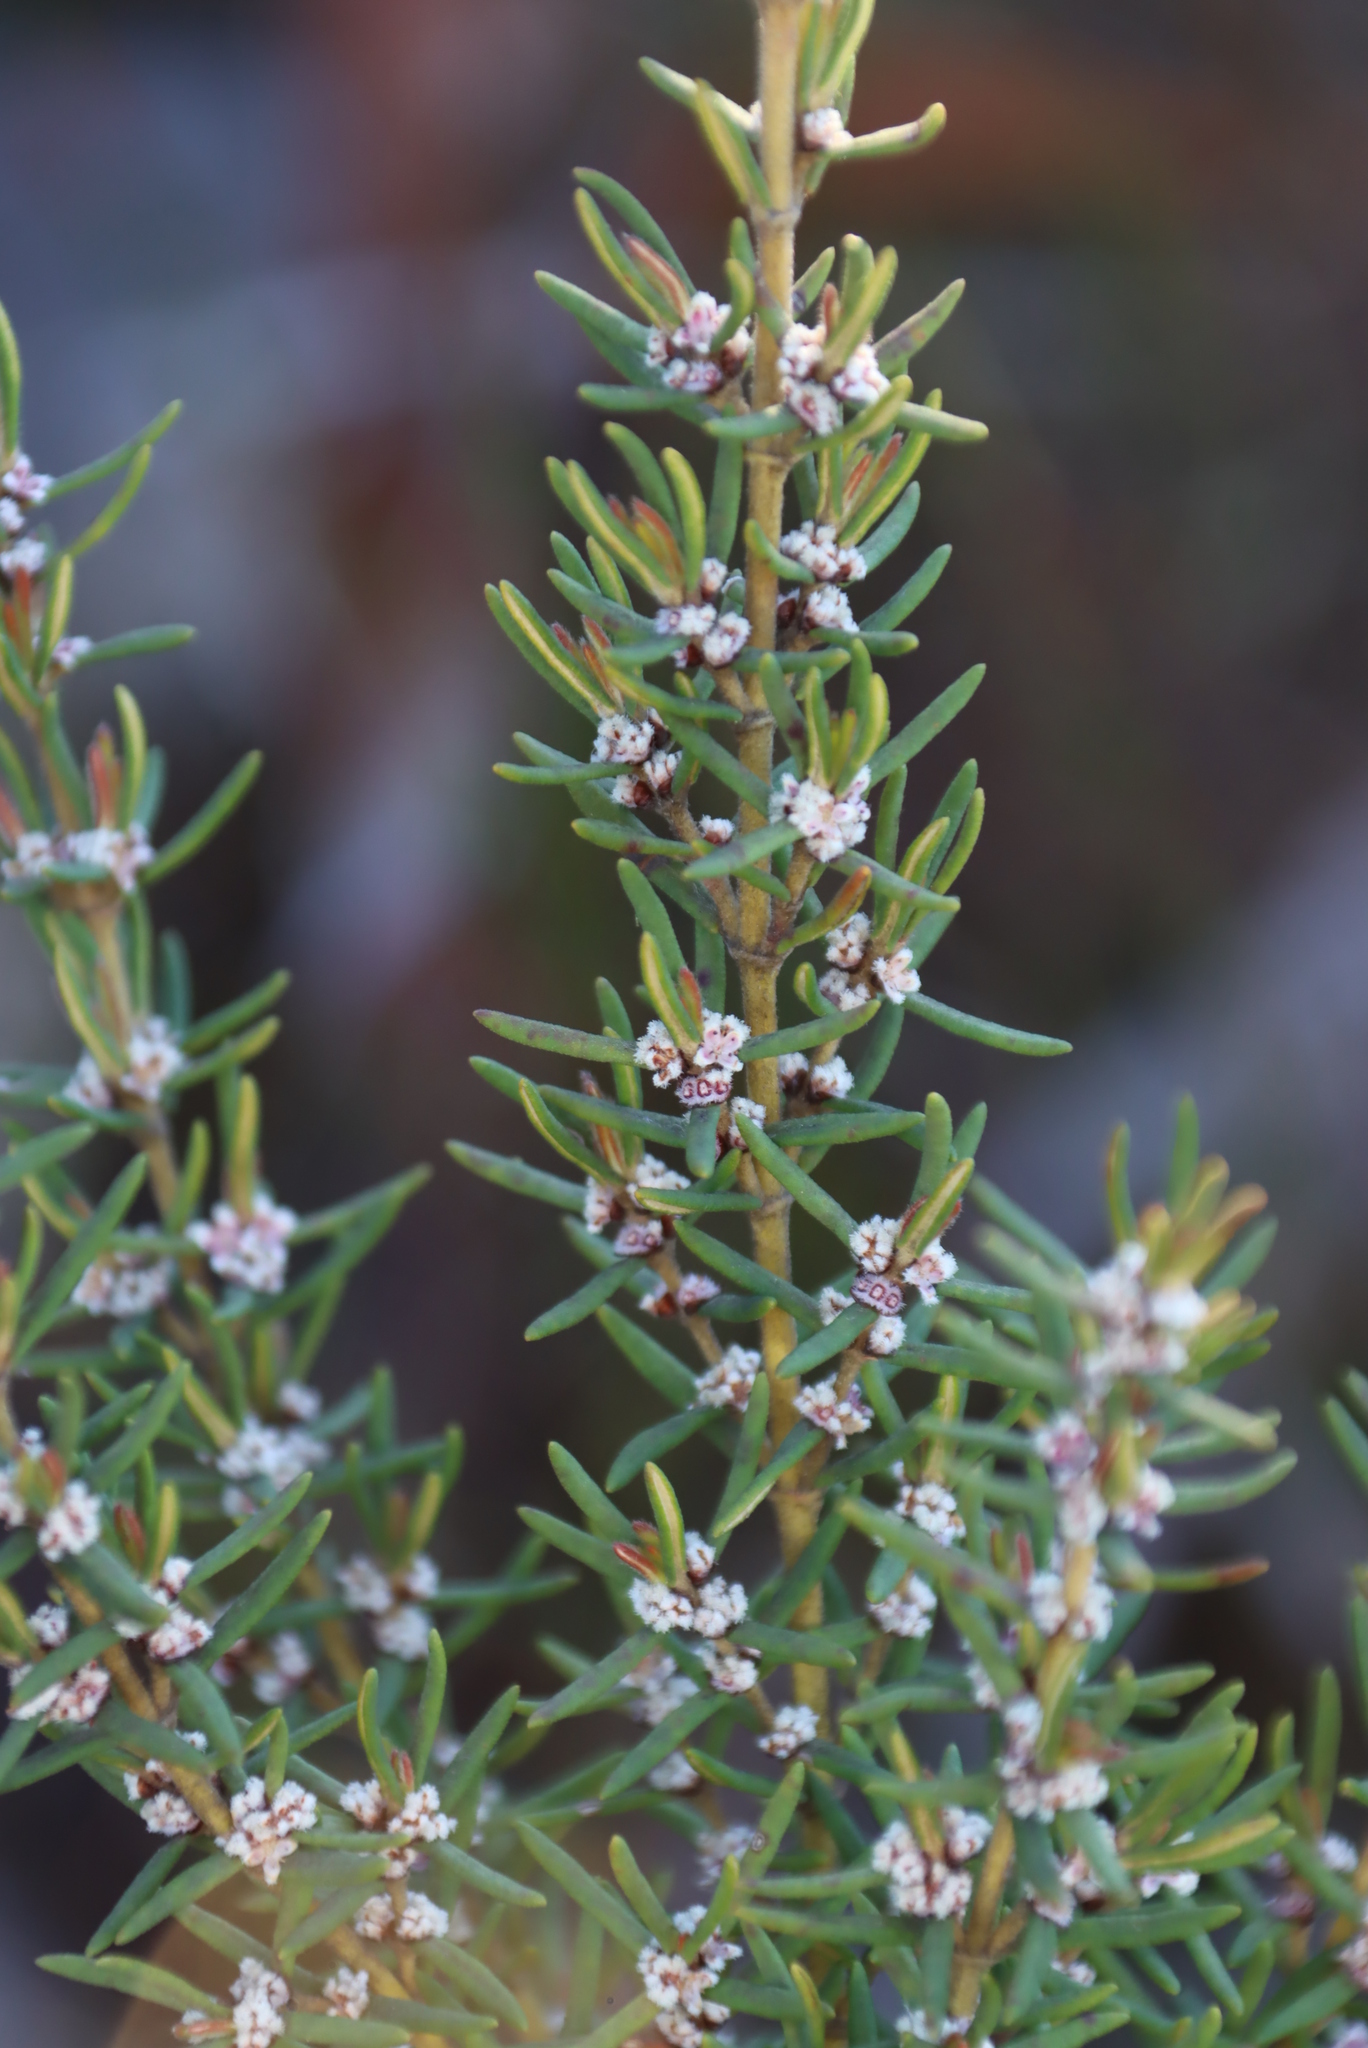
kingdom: Plantae
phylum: Tracheophyta
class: Magnoliopsida
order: Cornales
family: Grubbiaceae
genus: Grubbia
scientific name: Grubbia rosmarinifolia
